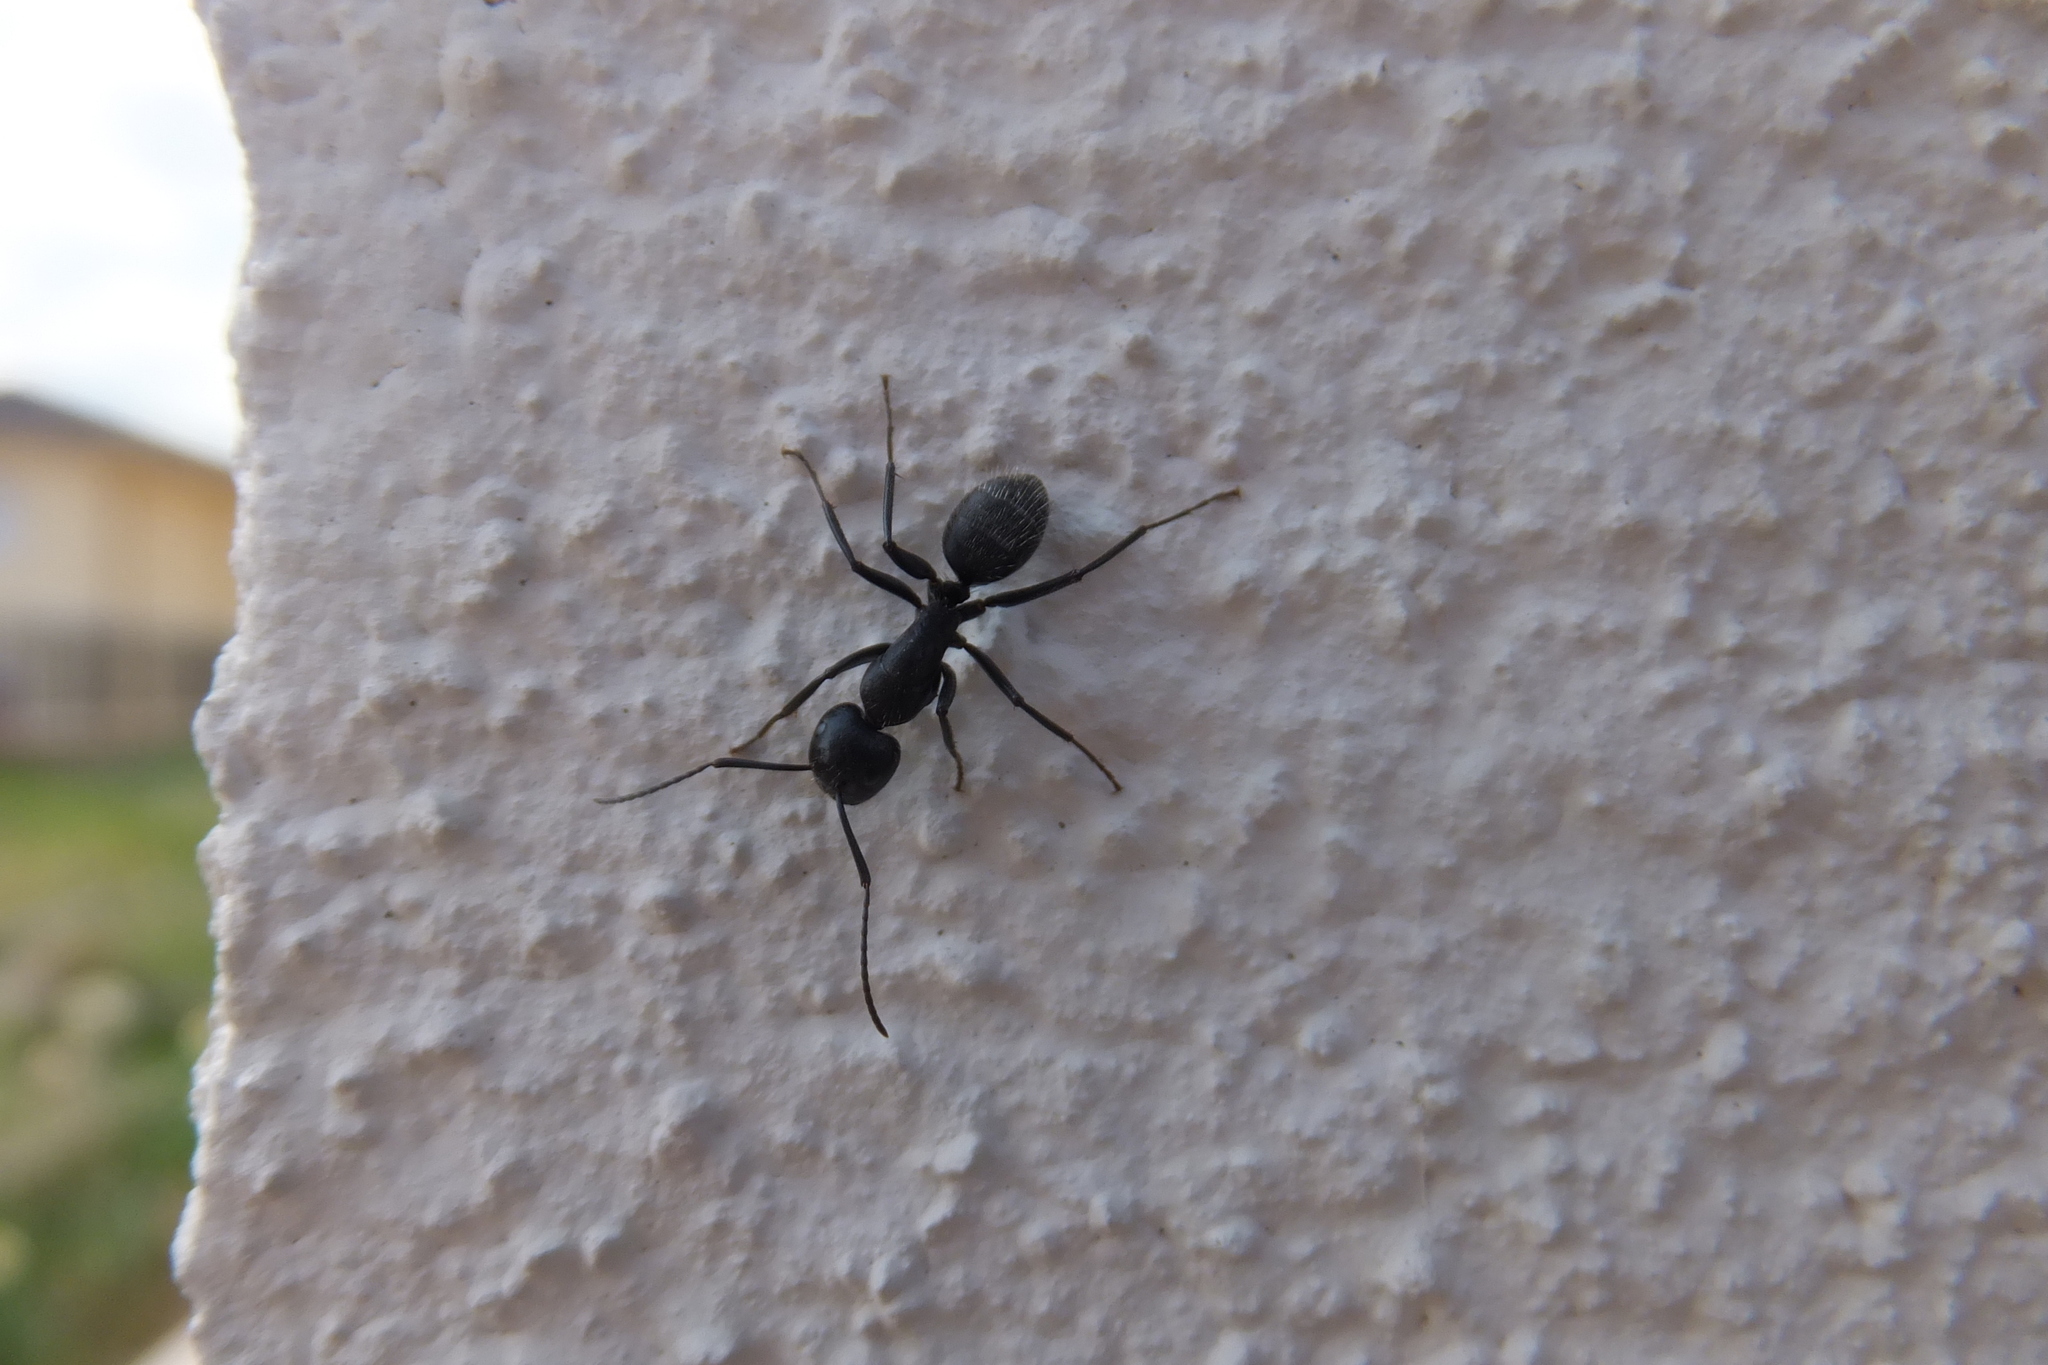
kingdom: Animalia
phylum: Arthropoda
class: Insecta
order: Hymenoptera
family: Formicidae
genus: Camponotus
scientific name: Camponotus vagus
